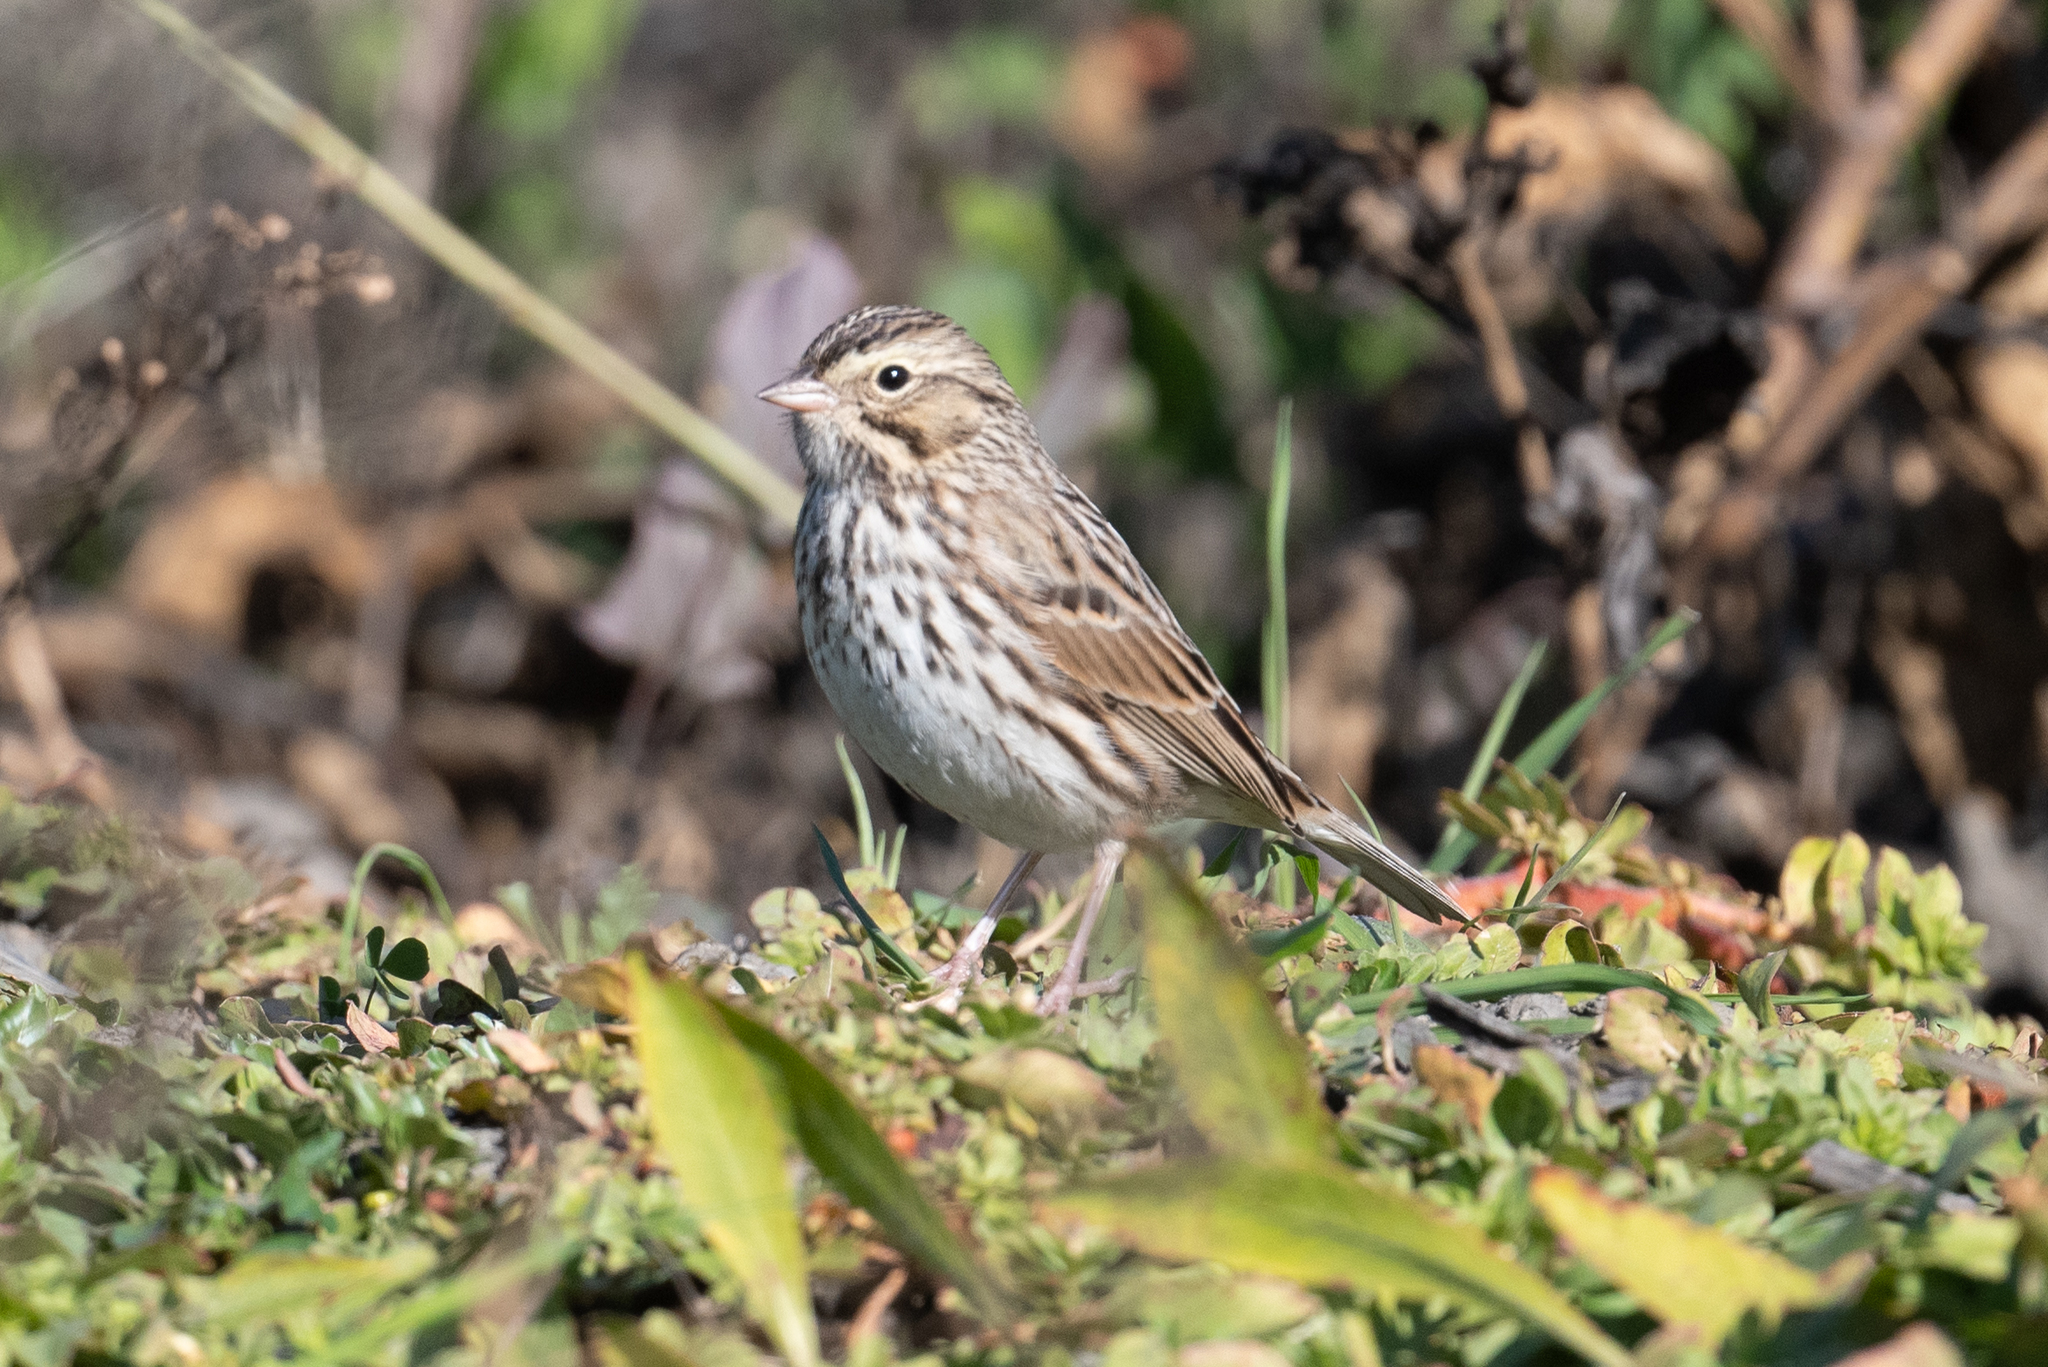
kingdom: Animalia
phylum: Chordata
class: Aves
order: Passeriformes
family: Passerellidae
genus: Passerculus
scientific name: Passerculus sandwichensis
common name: Savannah sparrow
